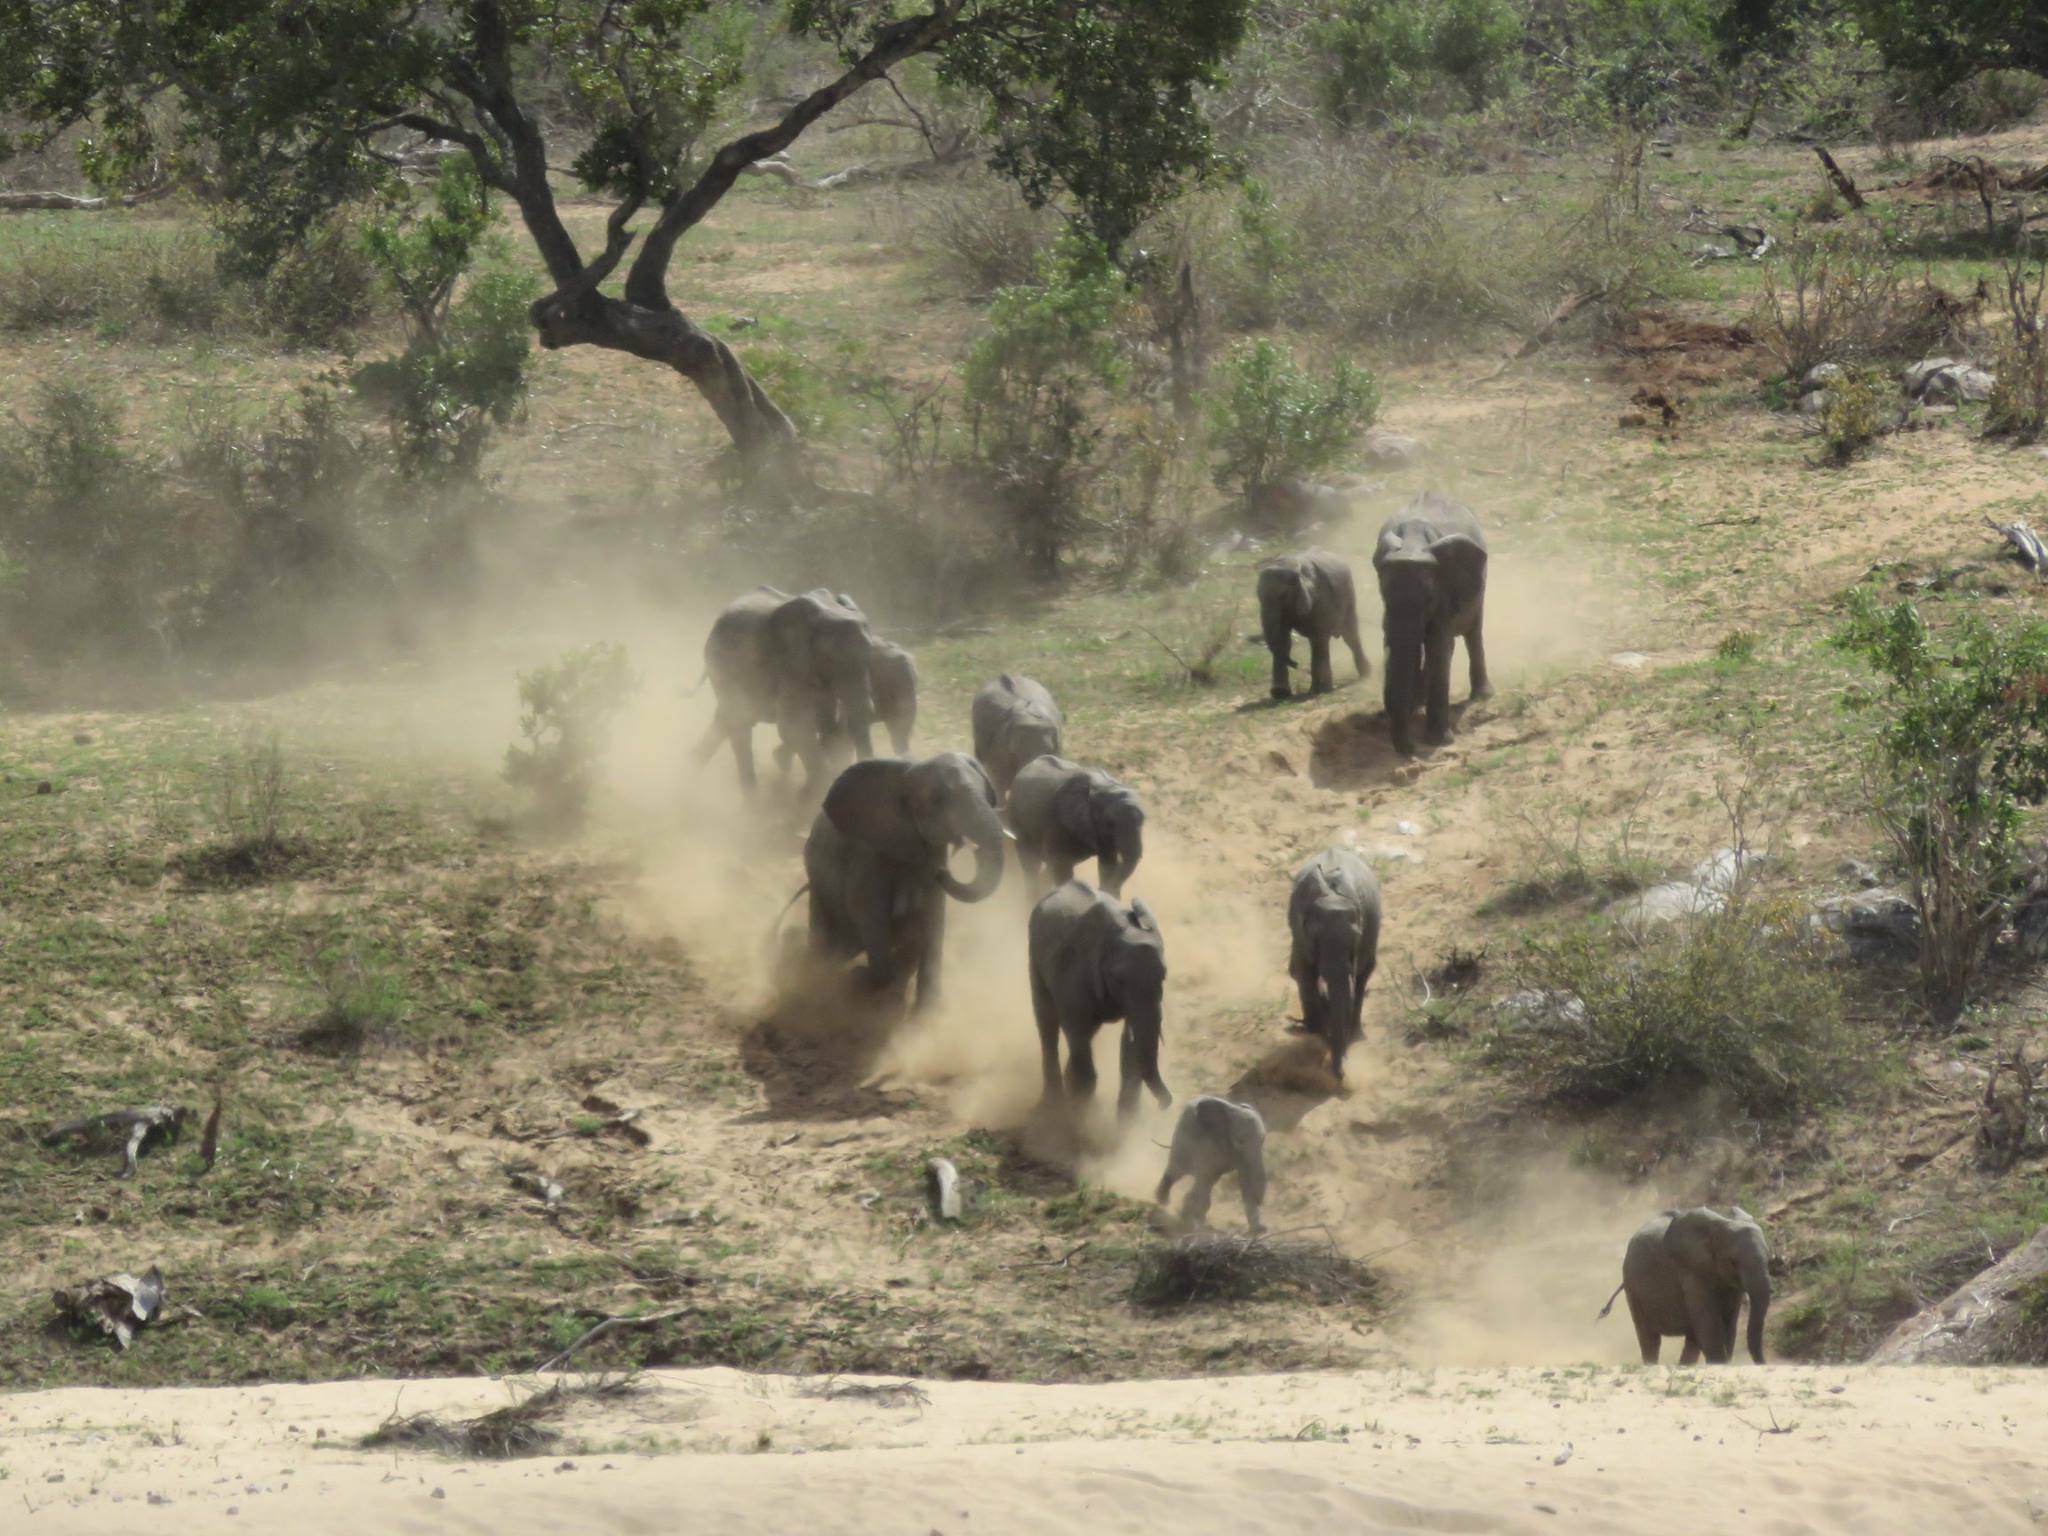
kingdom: Animalia
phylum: Chordata
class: Mammalia
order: Proboscidea
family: Elephantidae
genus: Loxodonta
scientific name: Loxodonta africana
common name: African elephant
